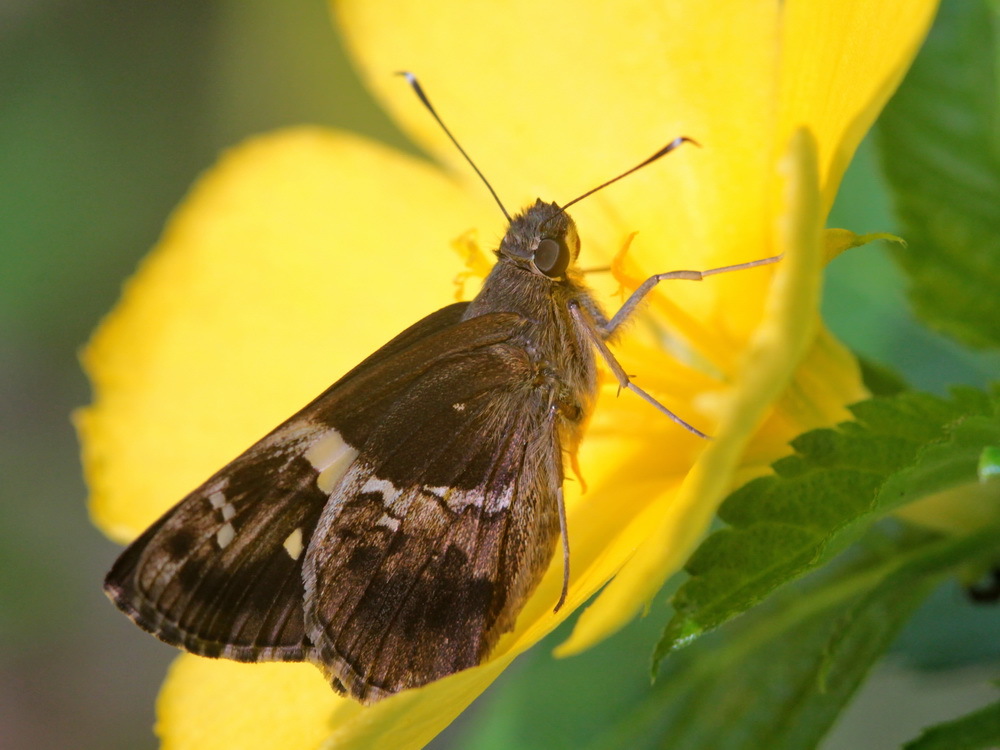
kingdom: Animalia
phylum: Arthropoda
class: Insecta
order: Lepidoptera
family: Hesperiidae
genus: Hyarotis
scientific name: Hyarotis adrastus
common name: Tree flitter
